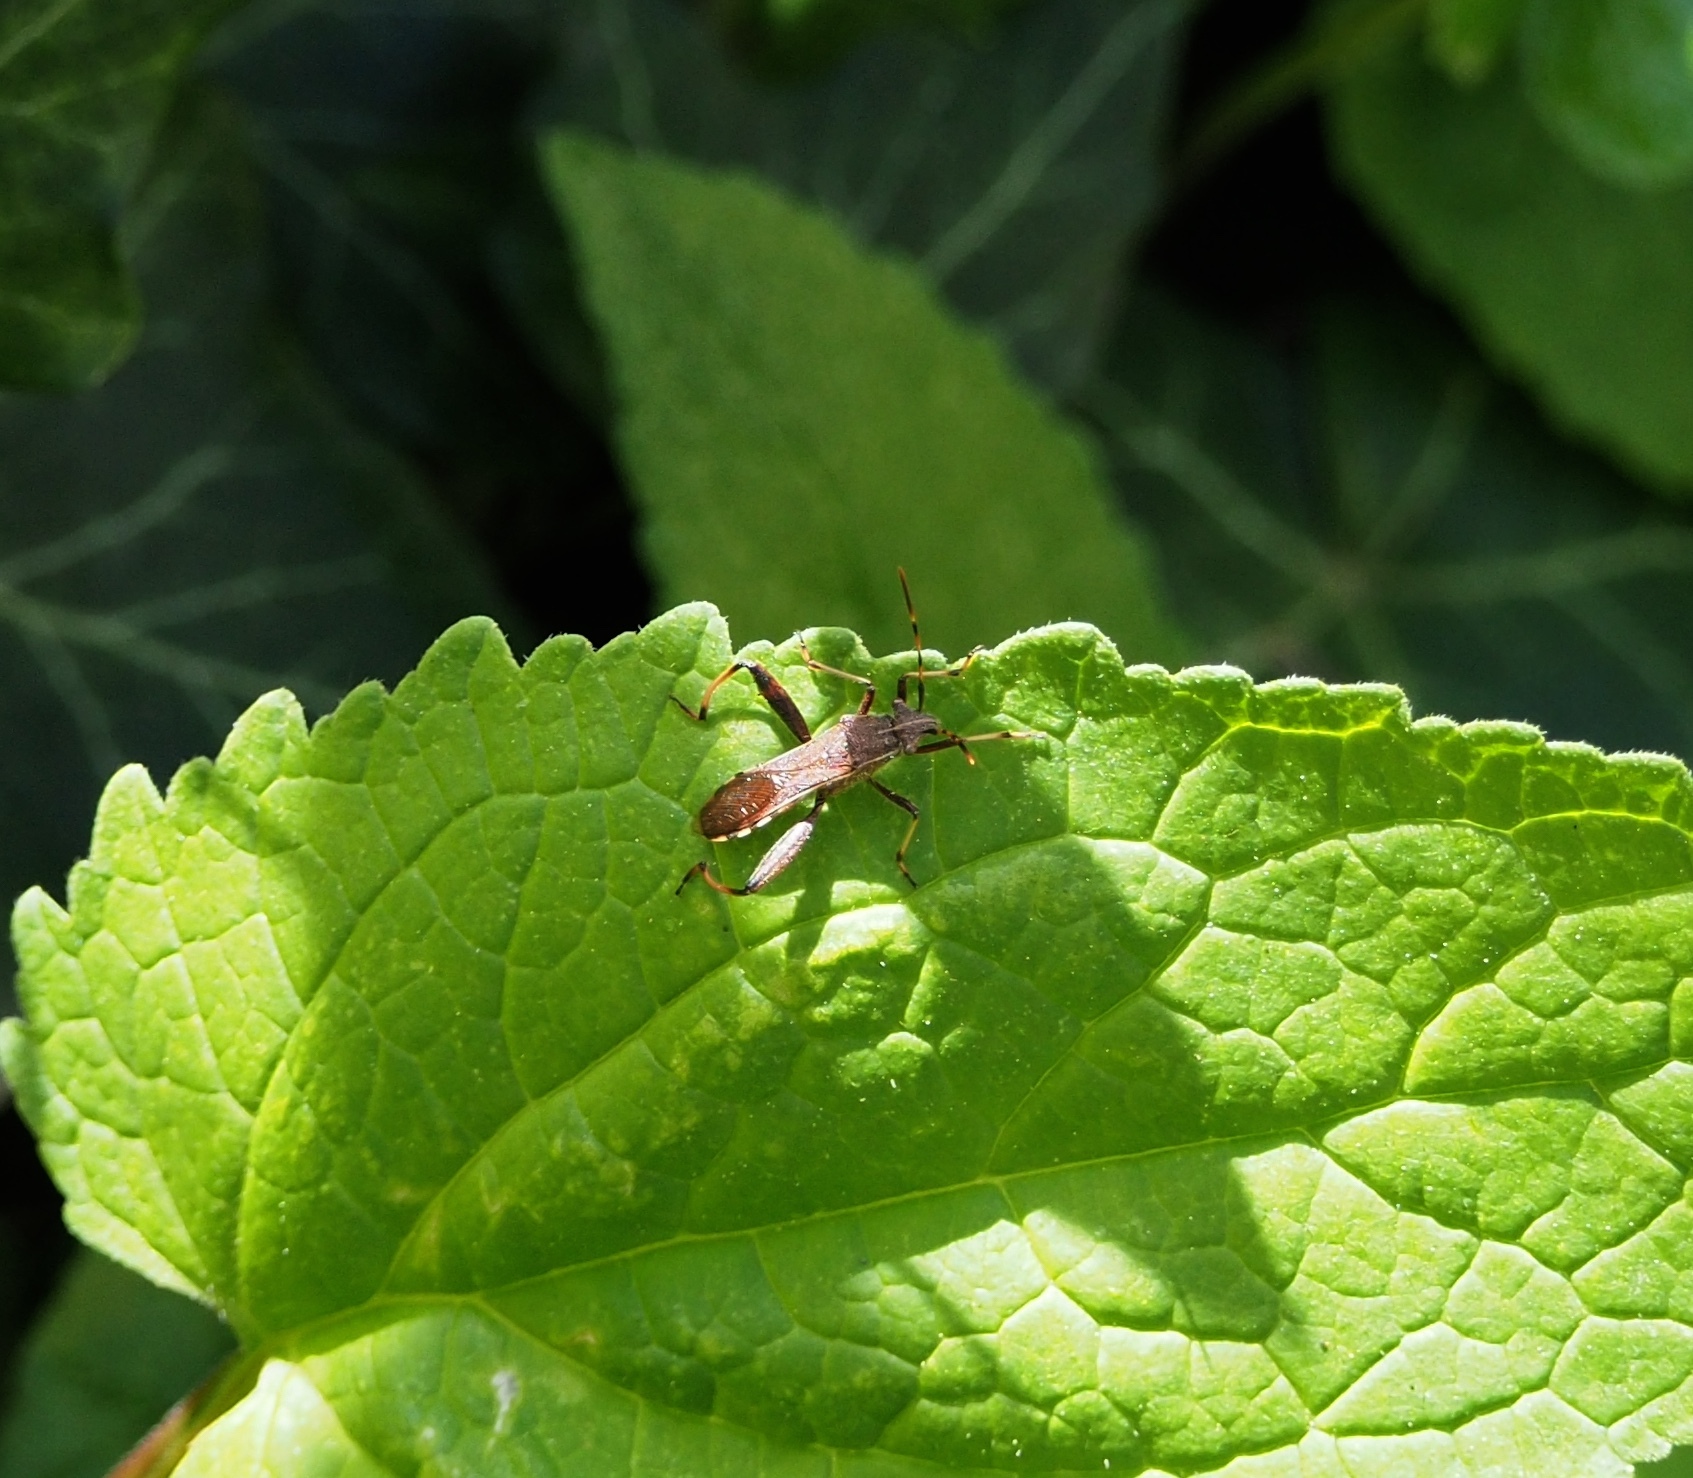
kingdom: Animalia
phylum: Arthropoda
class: Insecta
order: Hemiptera
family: Alydidae
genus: Camptopus
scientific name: Camptopus lateralis
